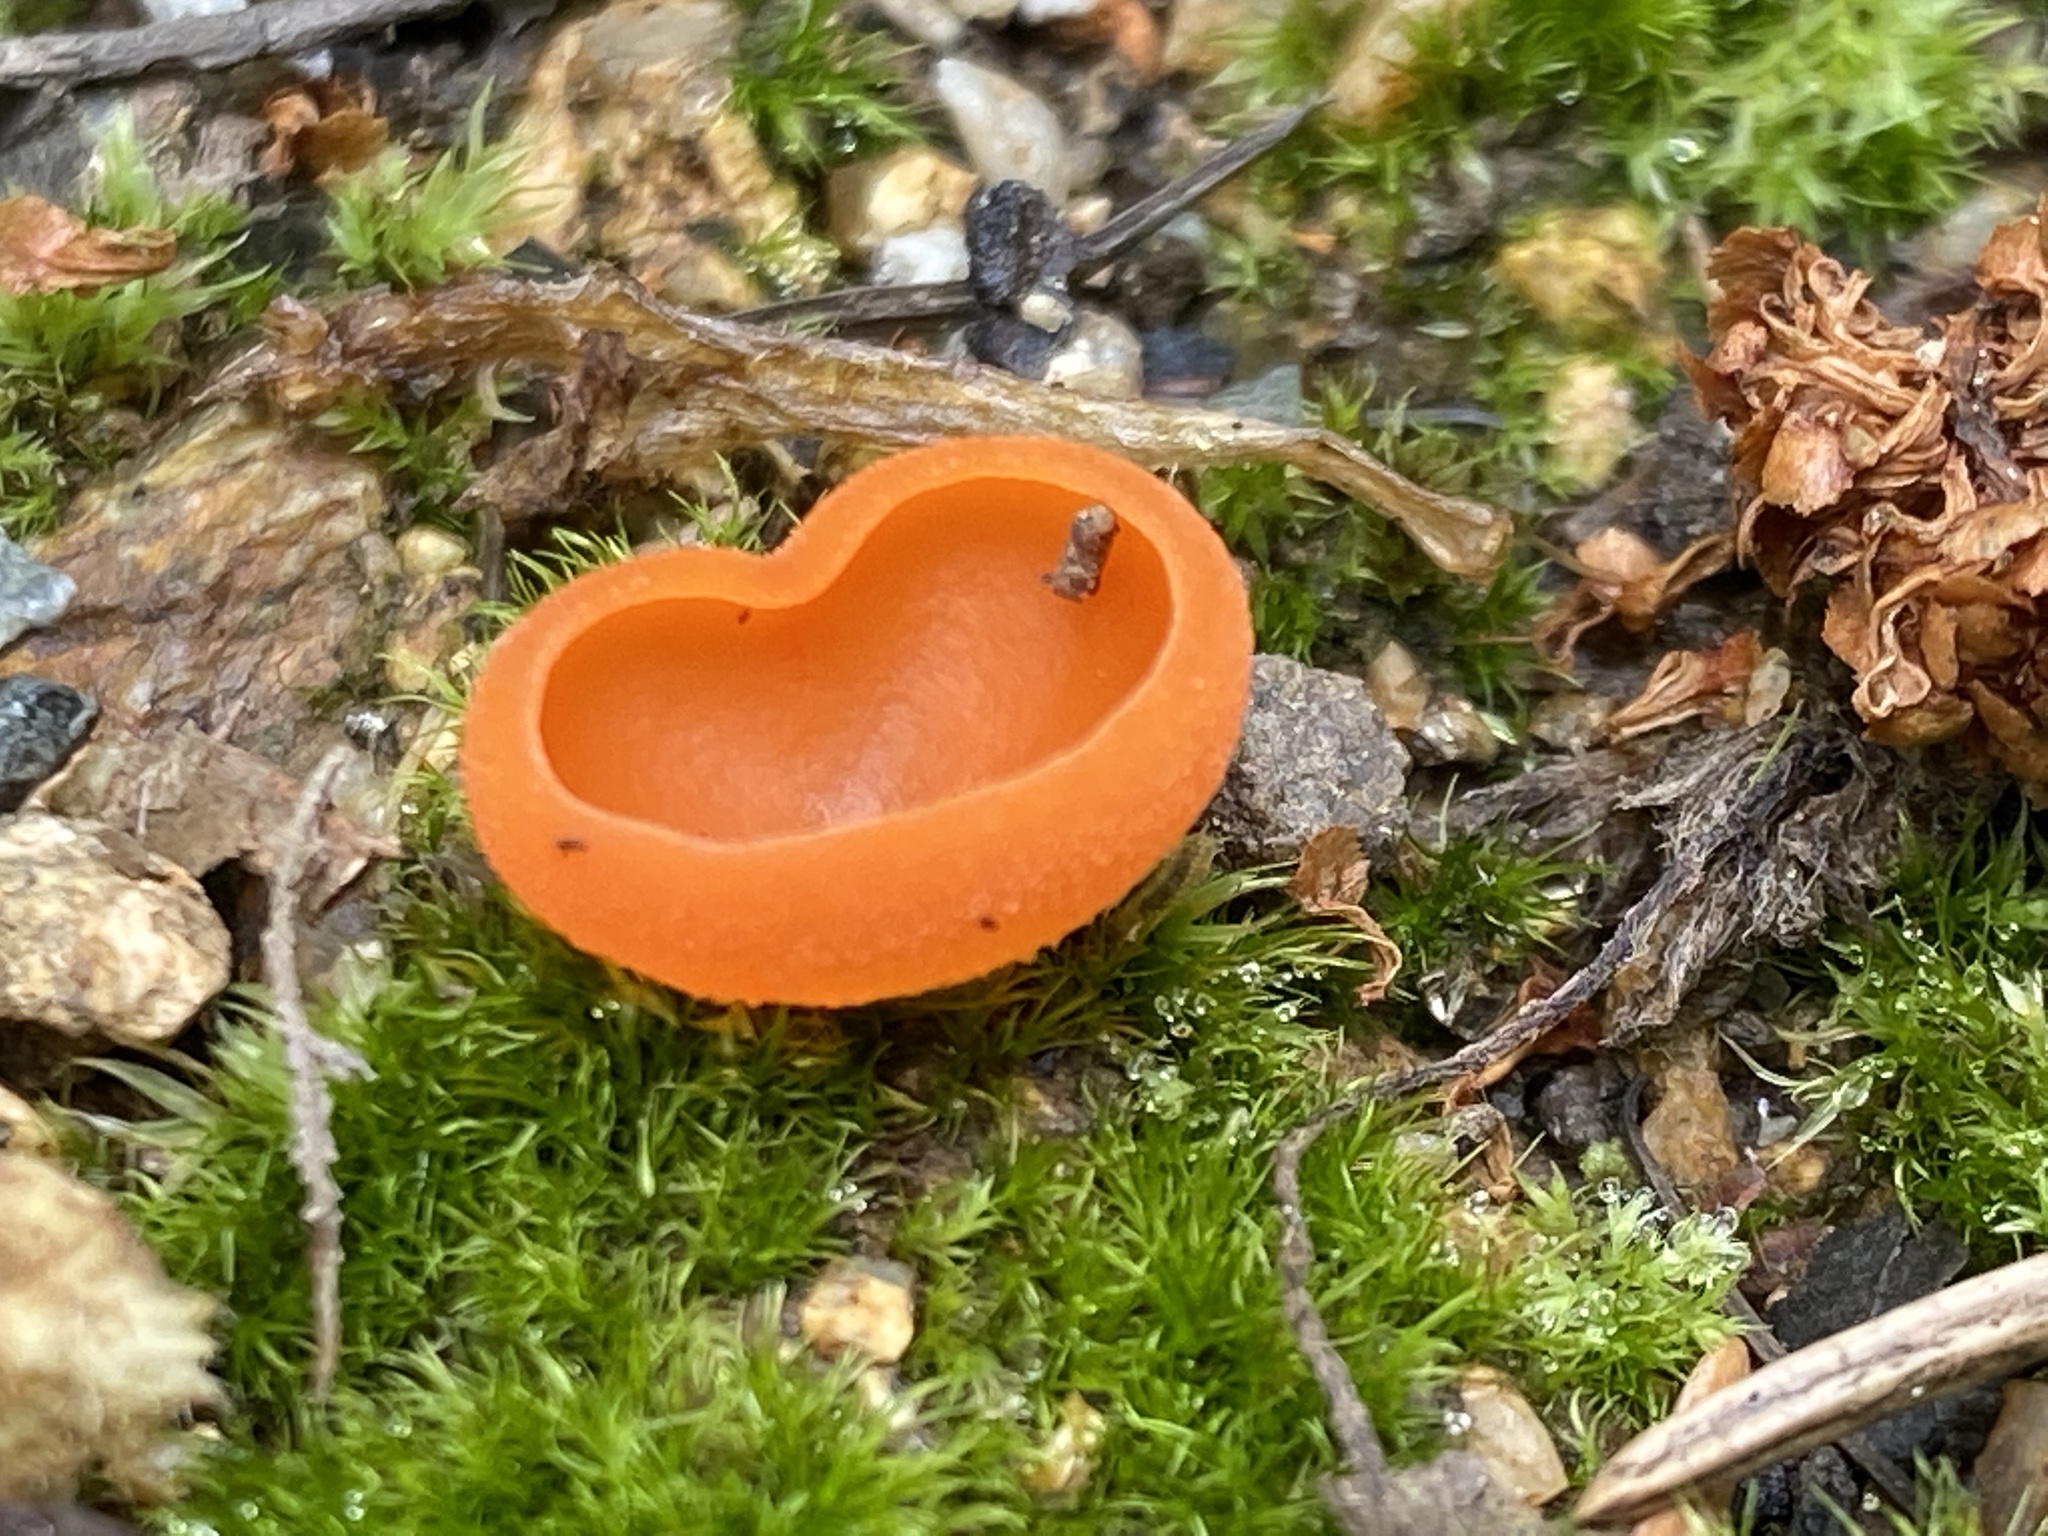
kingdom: Fungi
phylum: Ascomycota
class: Pezizomycetes
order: Pezizales
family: Pyronemataceae
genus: Aleuria
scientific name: Aleuria aurantia
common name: Orange peel fungus
